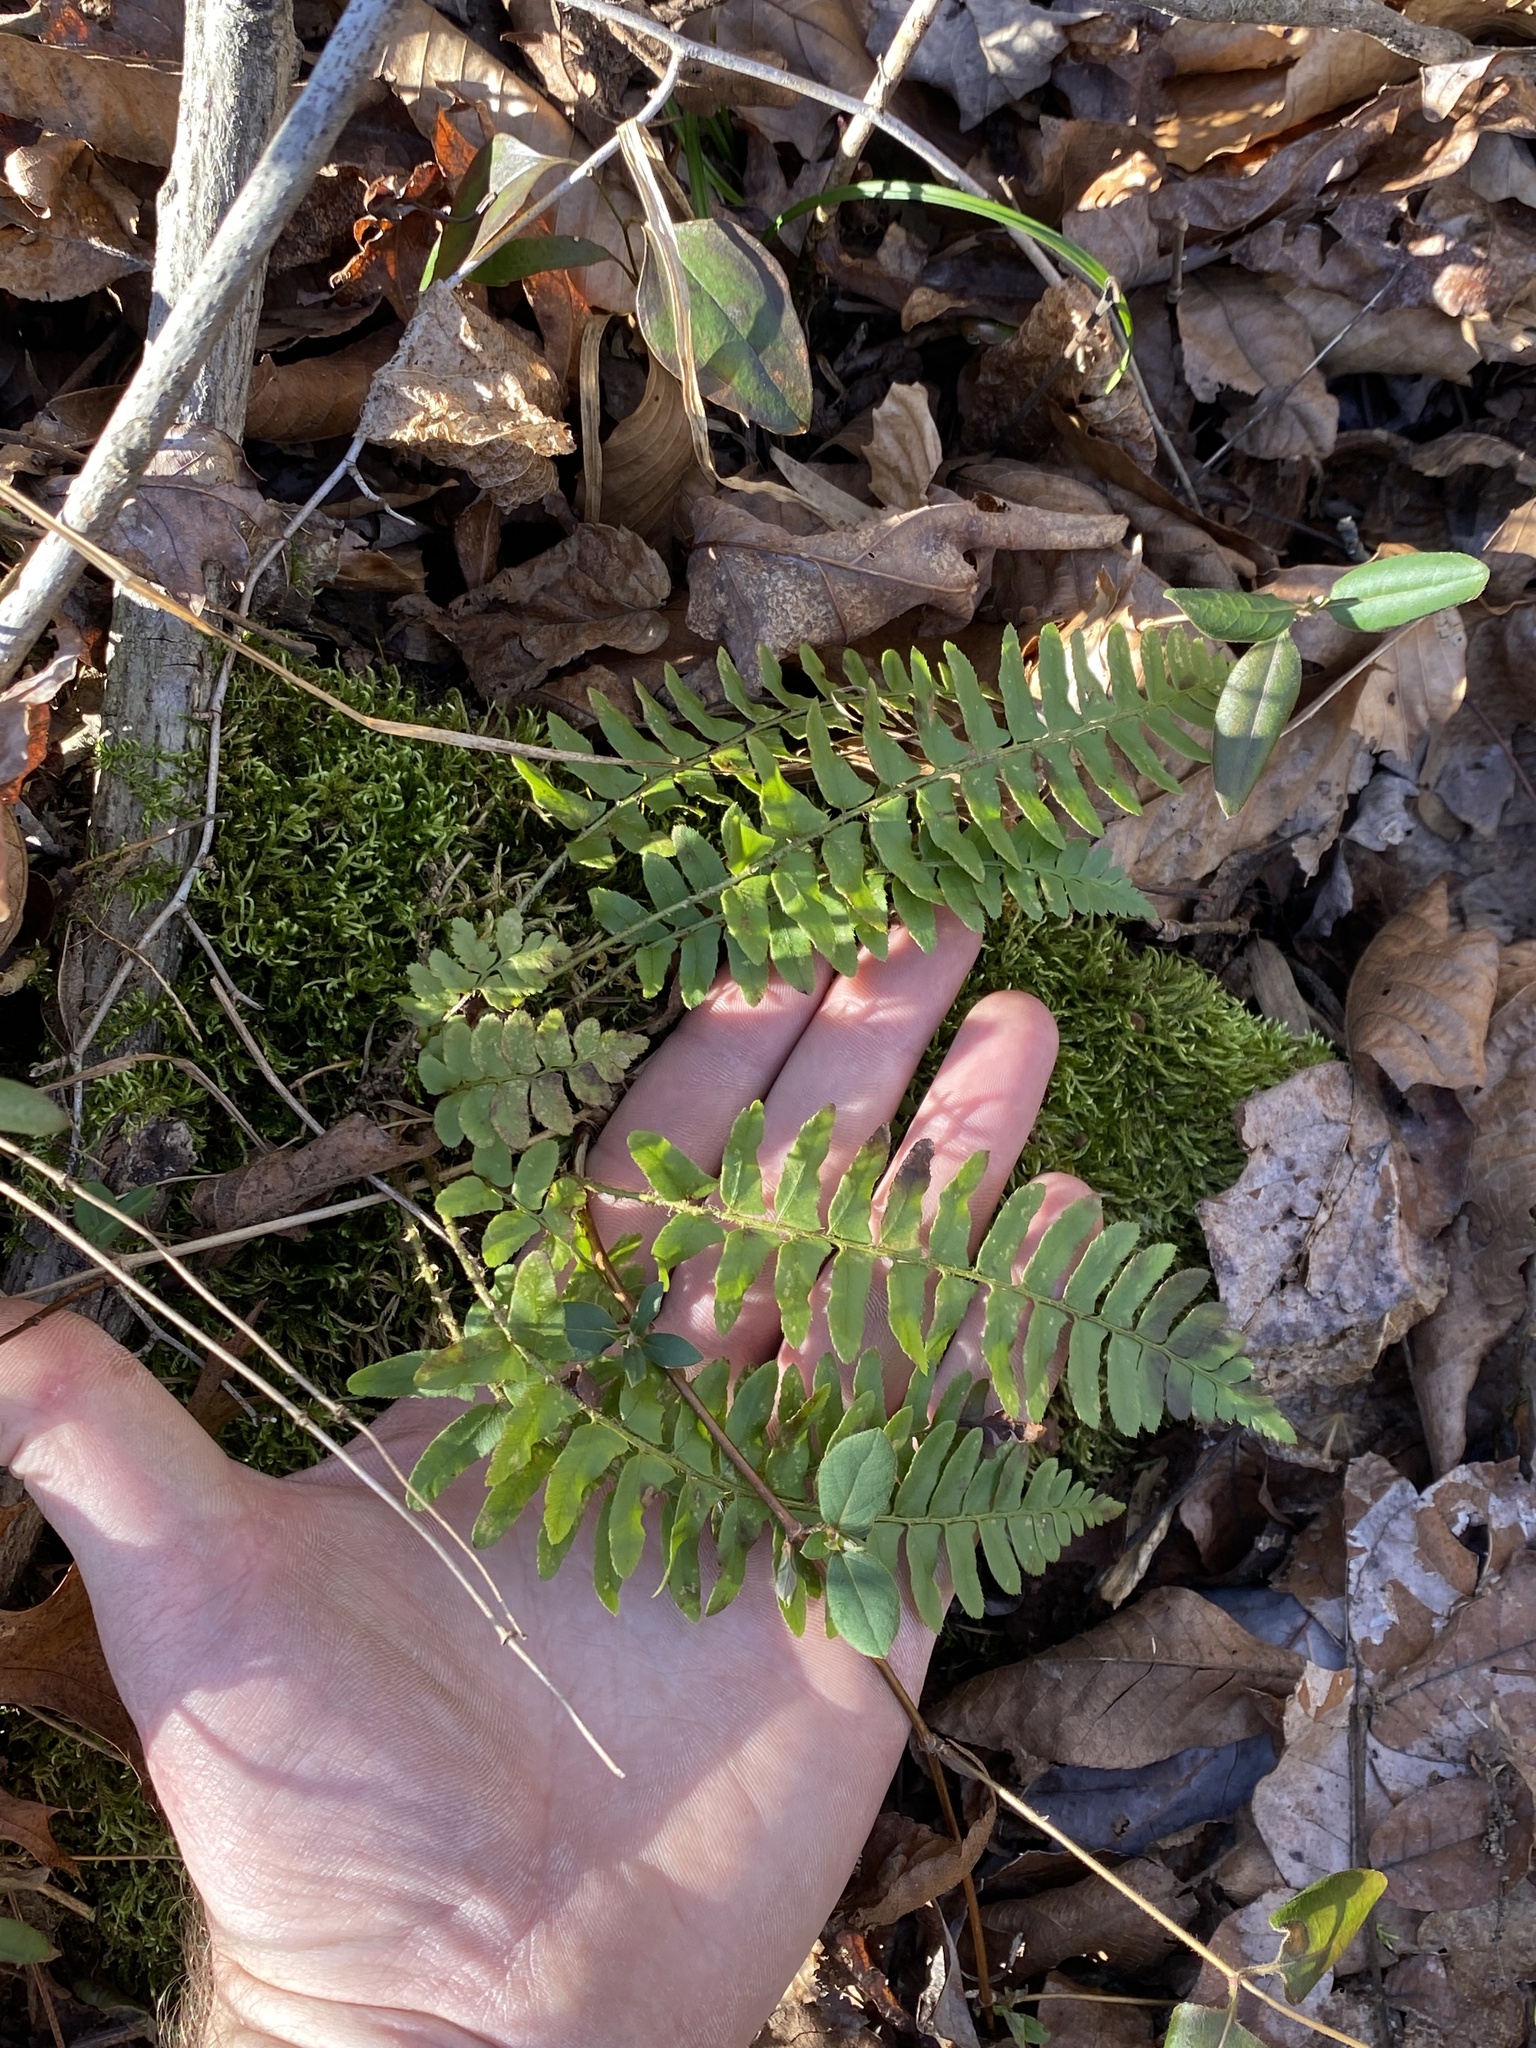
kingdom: Plantae
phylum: Tracheophyta
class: Polypodiopsida
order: Polypodiales
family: Dryopteridaceae
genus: Polystichum
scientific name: Polystichum acrostichoides
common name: Christmas fern
